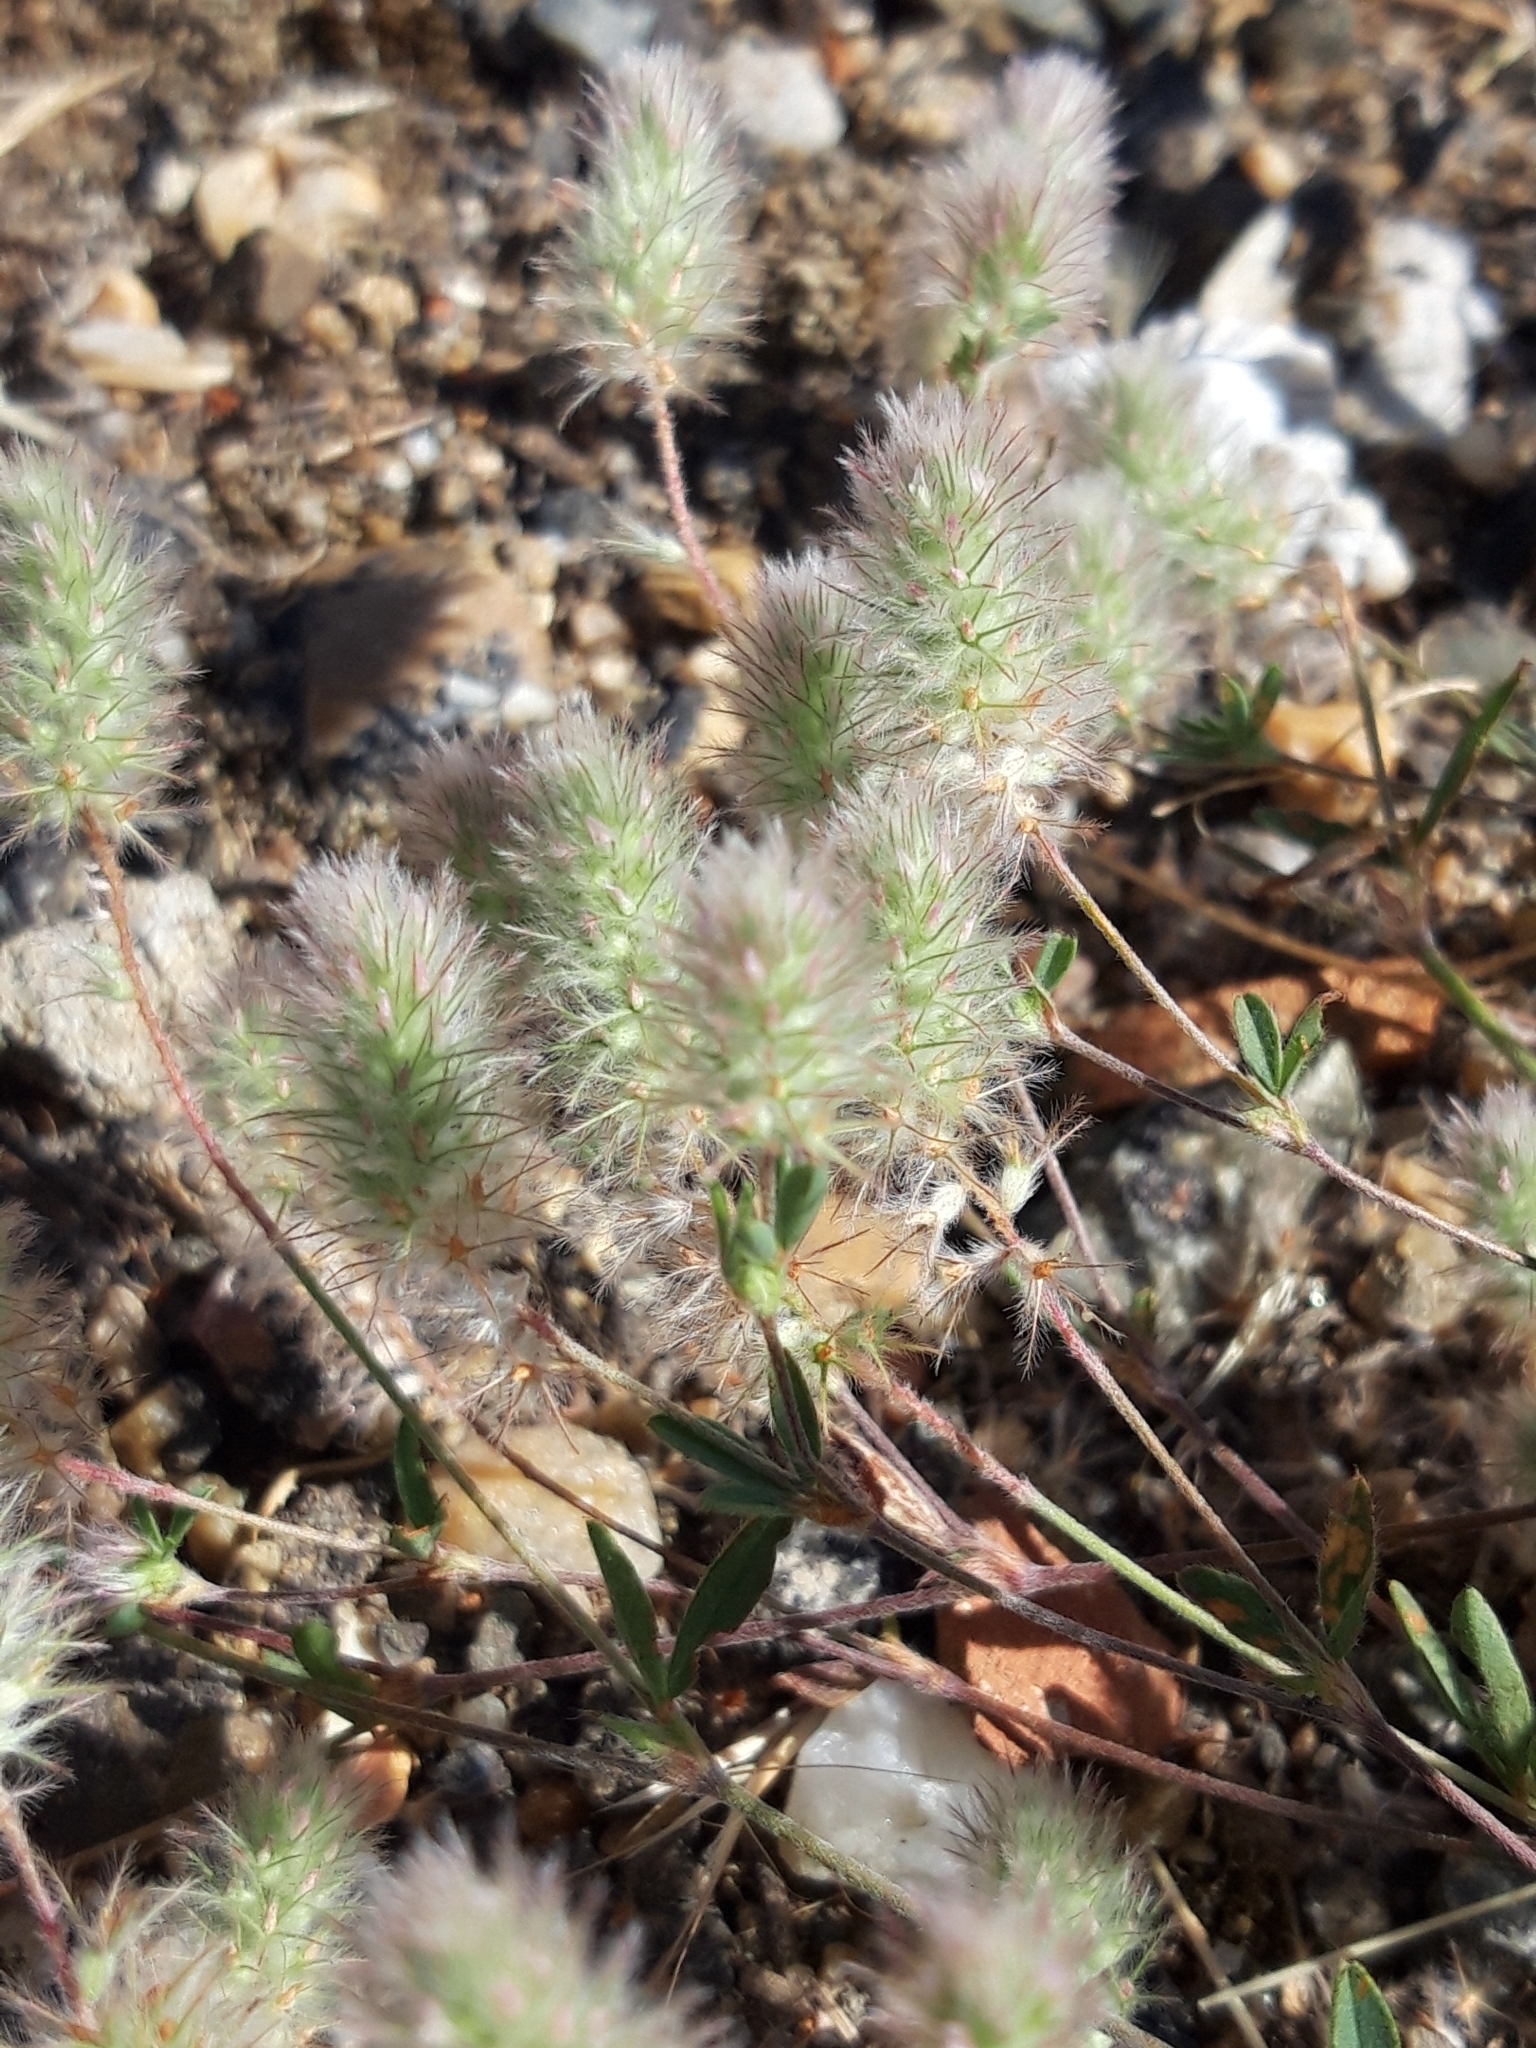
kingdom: Plantae
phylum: Tracheophyta
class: Magnoliopsida
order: Fabales
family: Fabaceae
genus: Trifolium
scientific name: Trifolium arvense
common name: Hare's-foot clover
